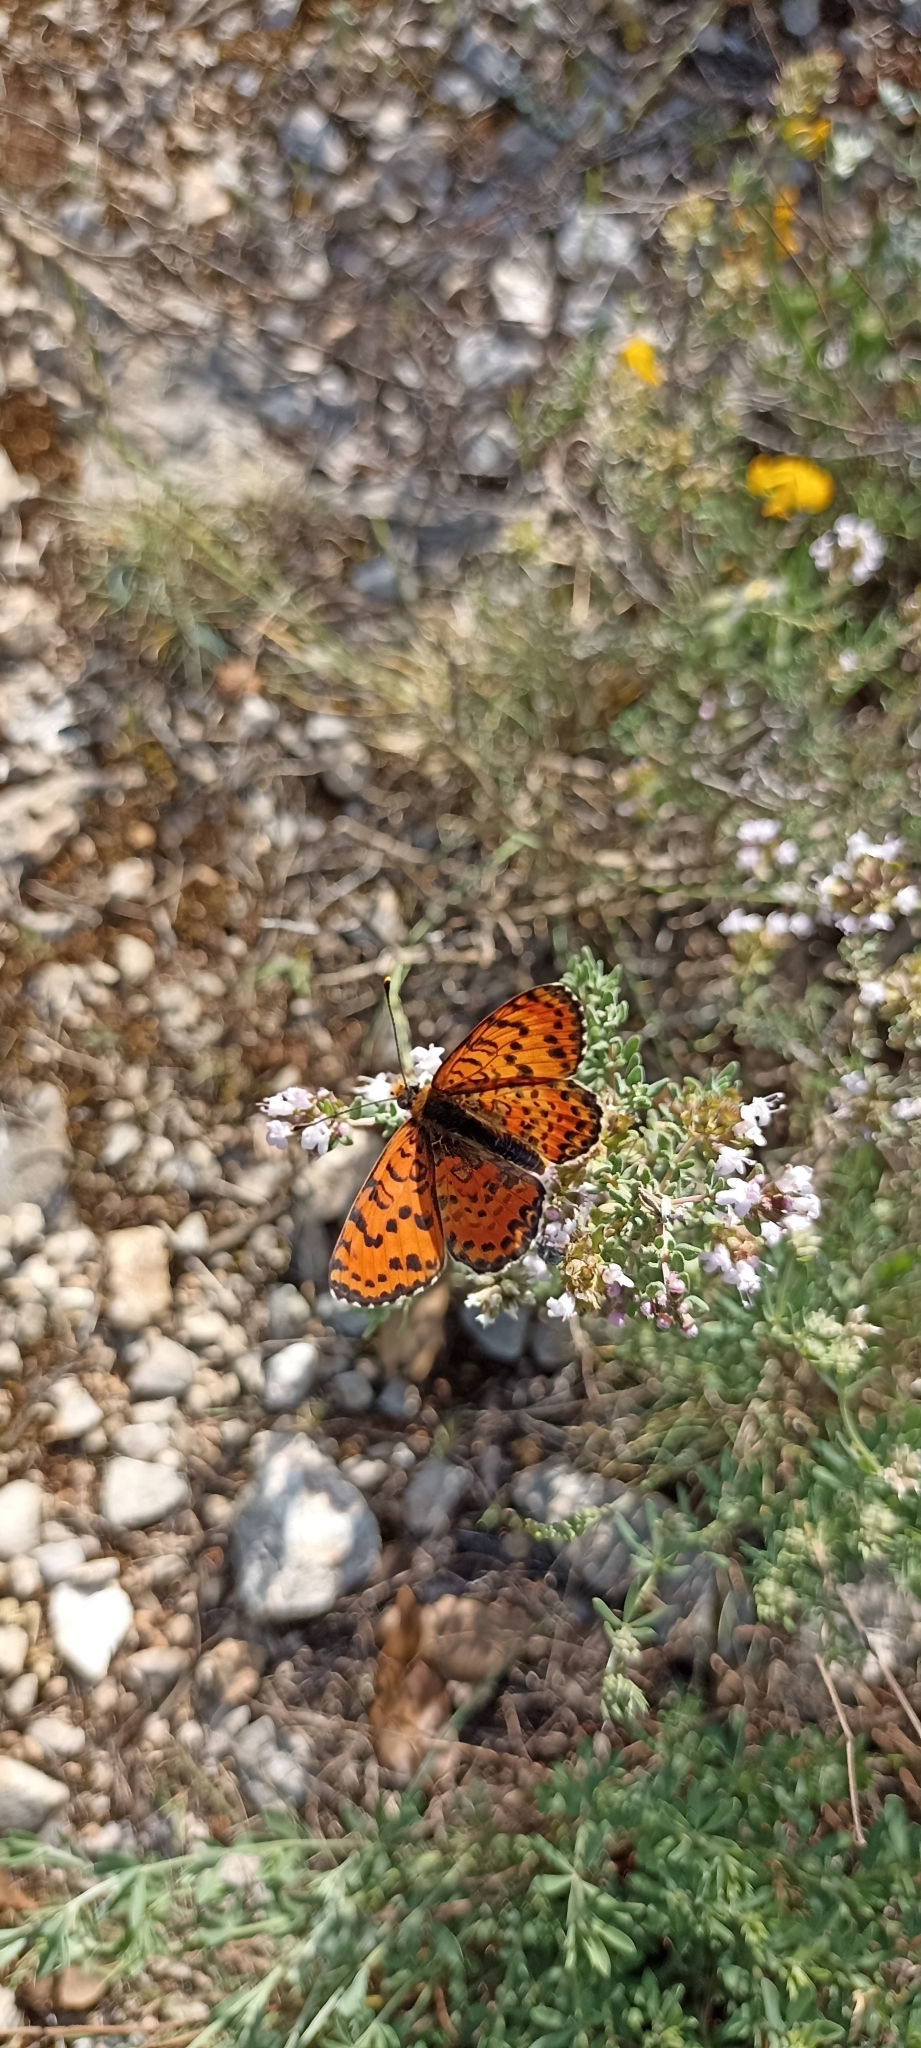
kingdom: Animalia
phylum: Arthropoda
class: Insecta
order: Lepidoptera
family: Nymphalidae
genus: Melitaea
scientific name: Melitaea didyma
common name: Spotted fritillary
